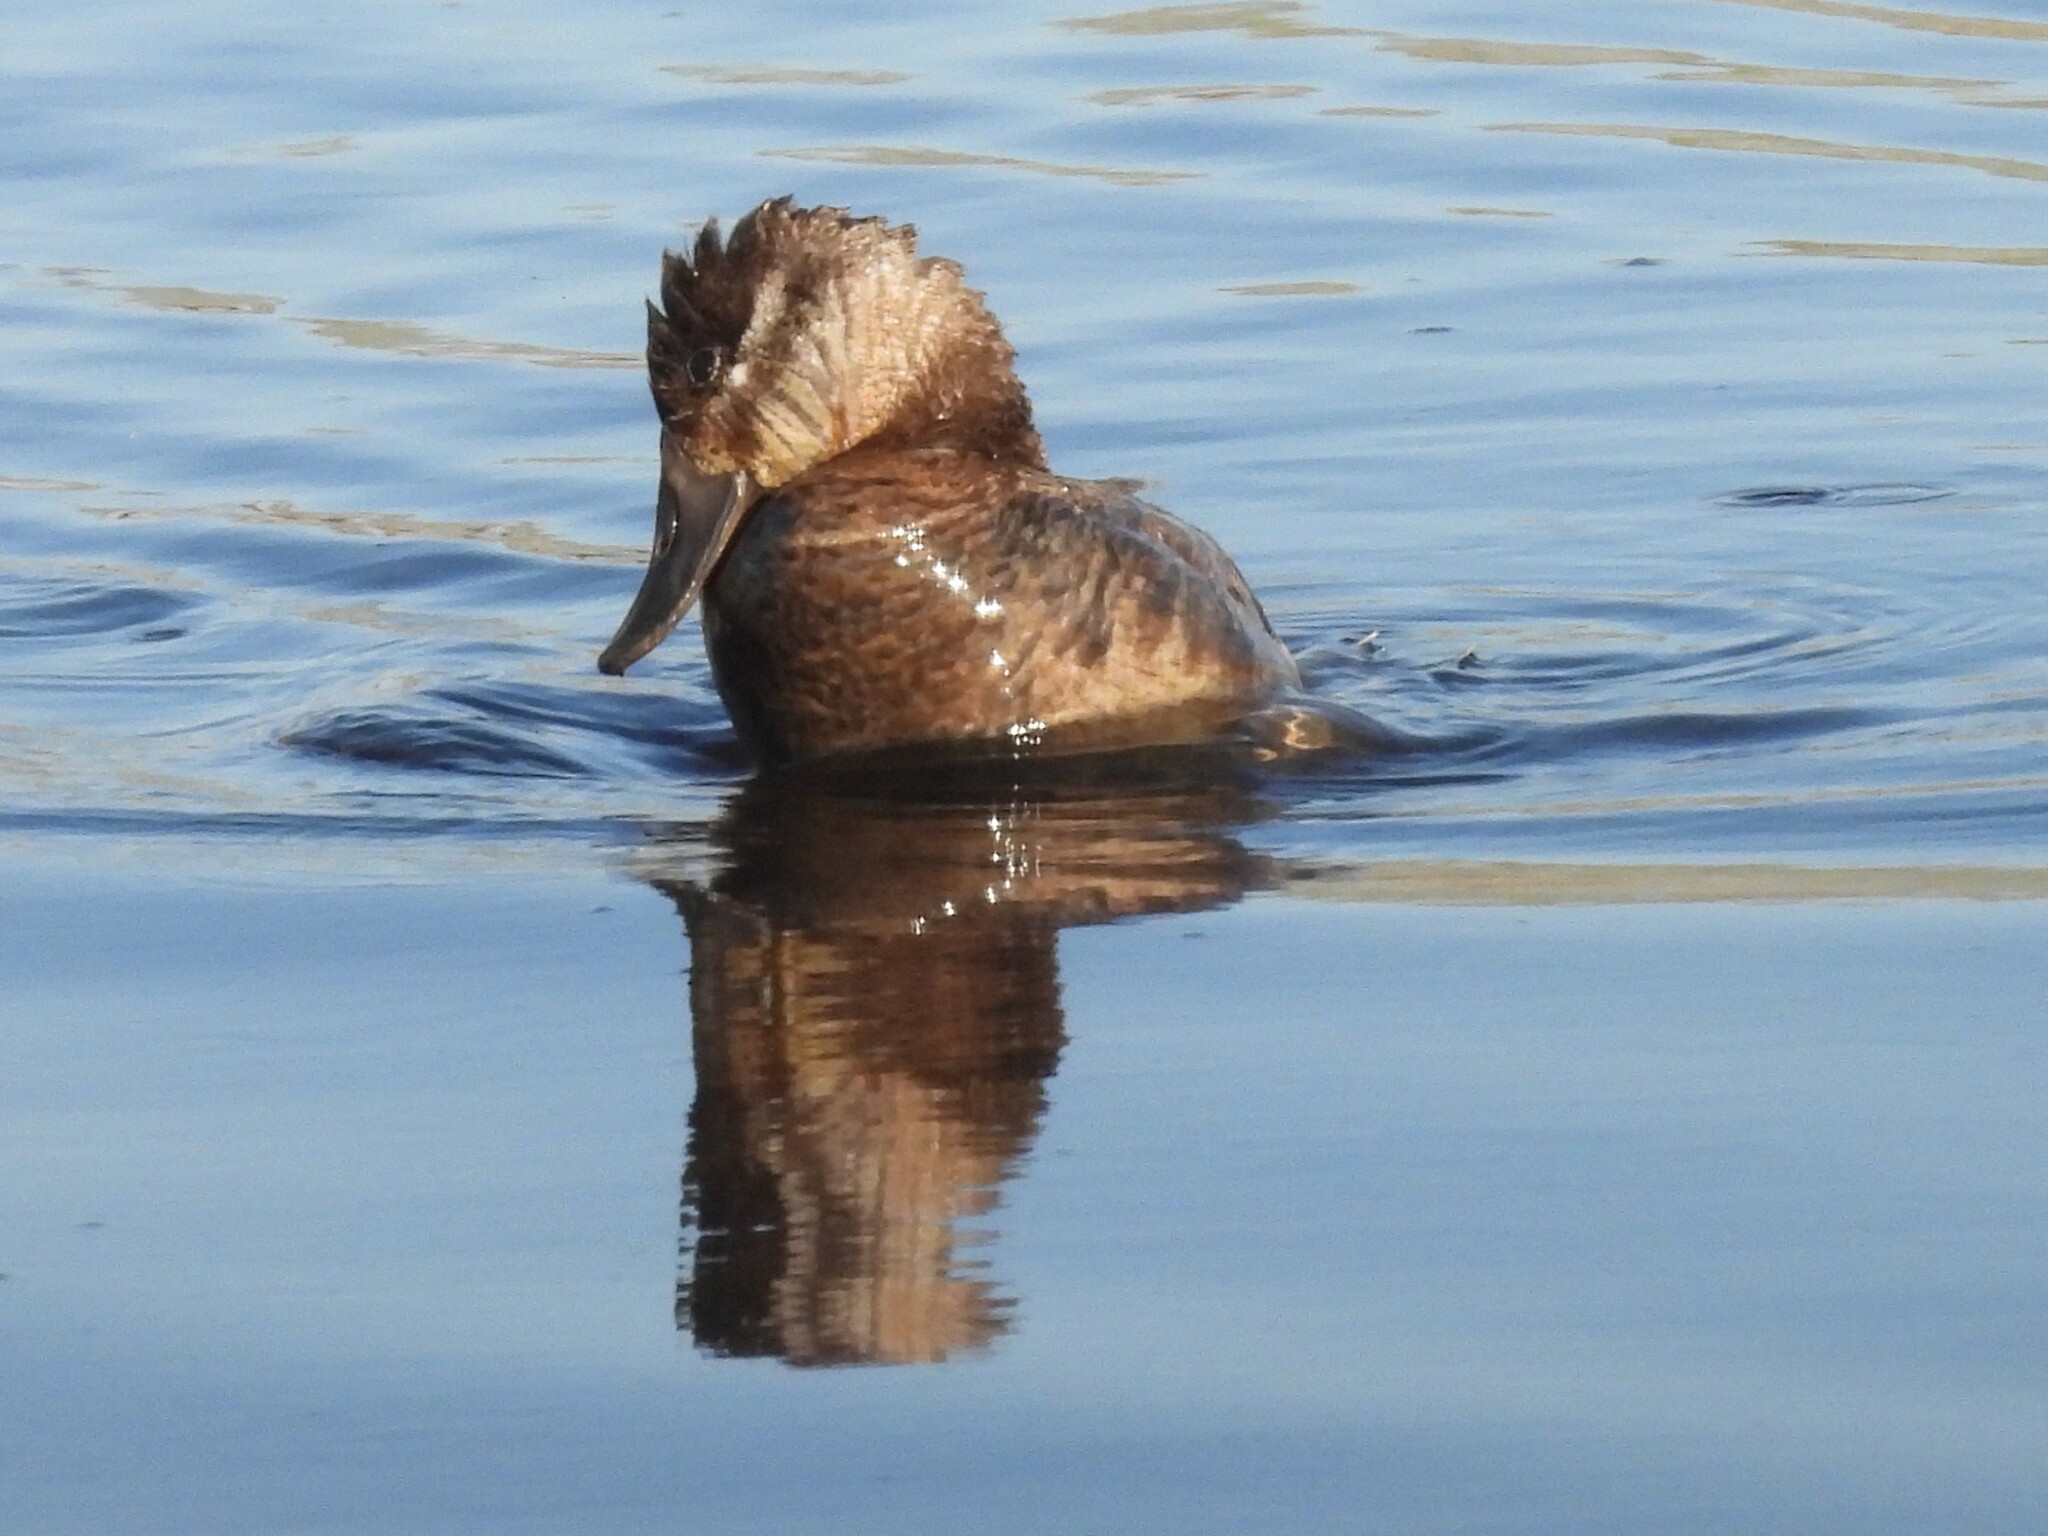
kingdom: Animalia
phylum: Chordata
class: Aves
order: Anseriformes
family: Anatidae
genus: Oxyura
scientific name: Oxyura jamaicensis
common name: Ruddy duck
